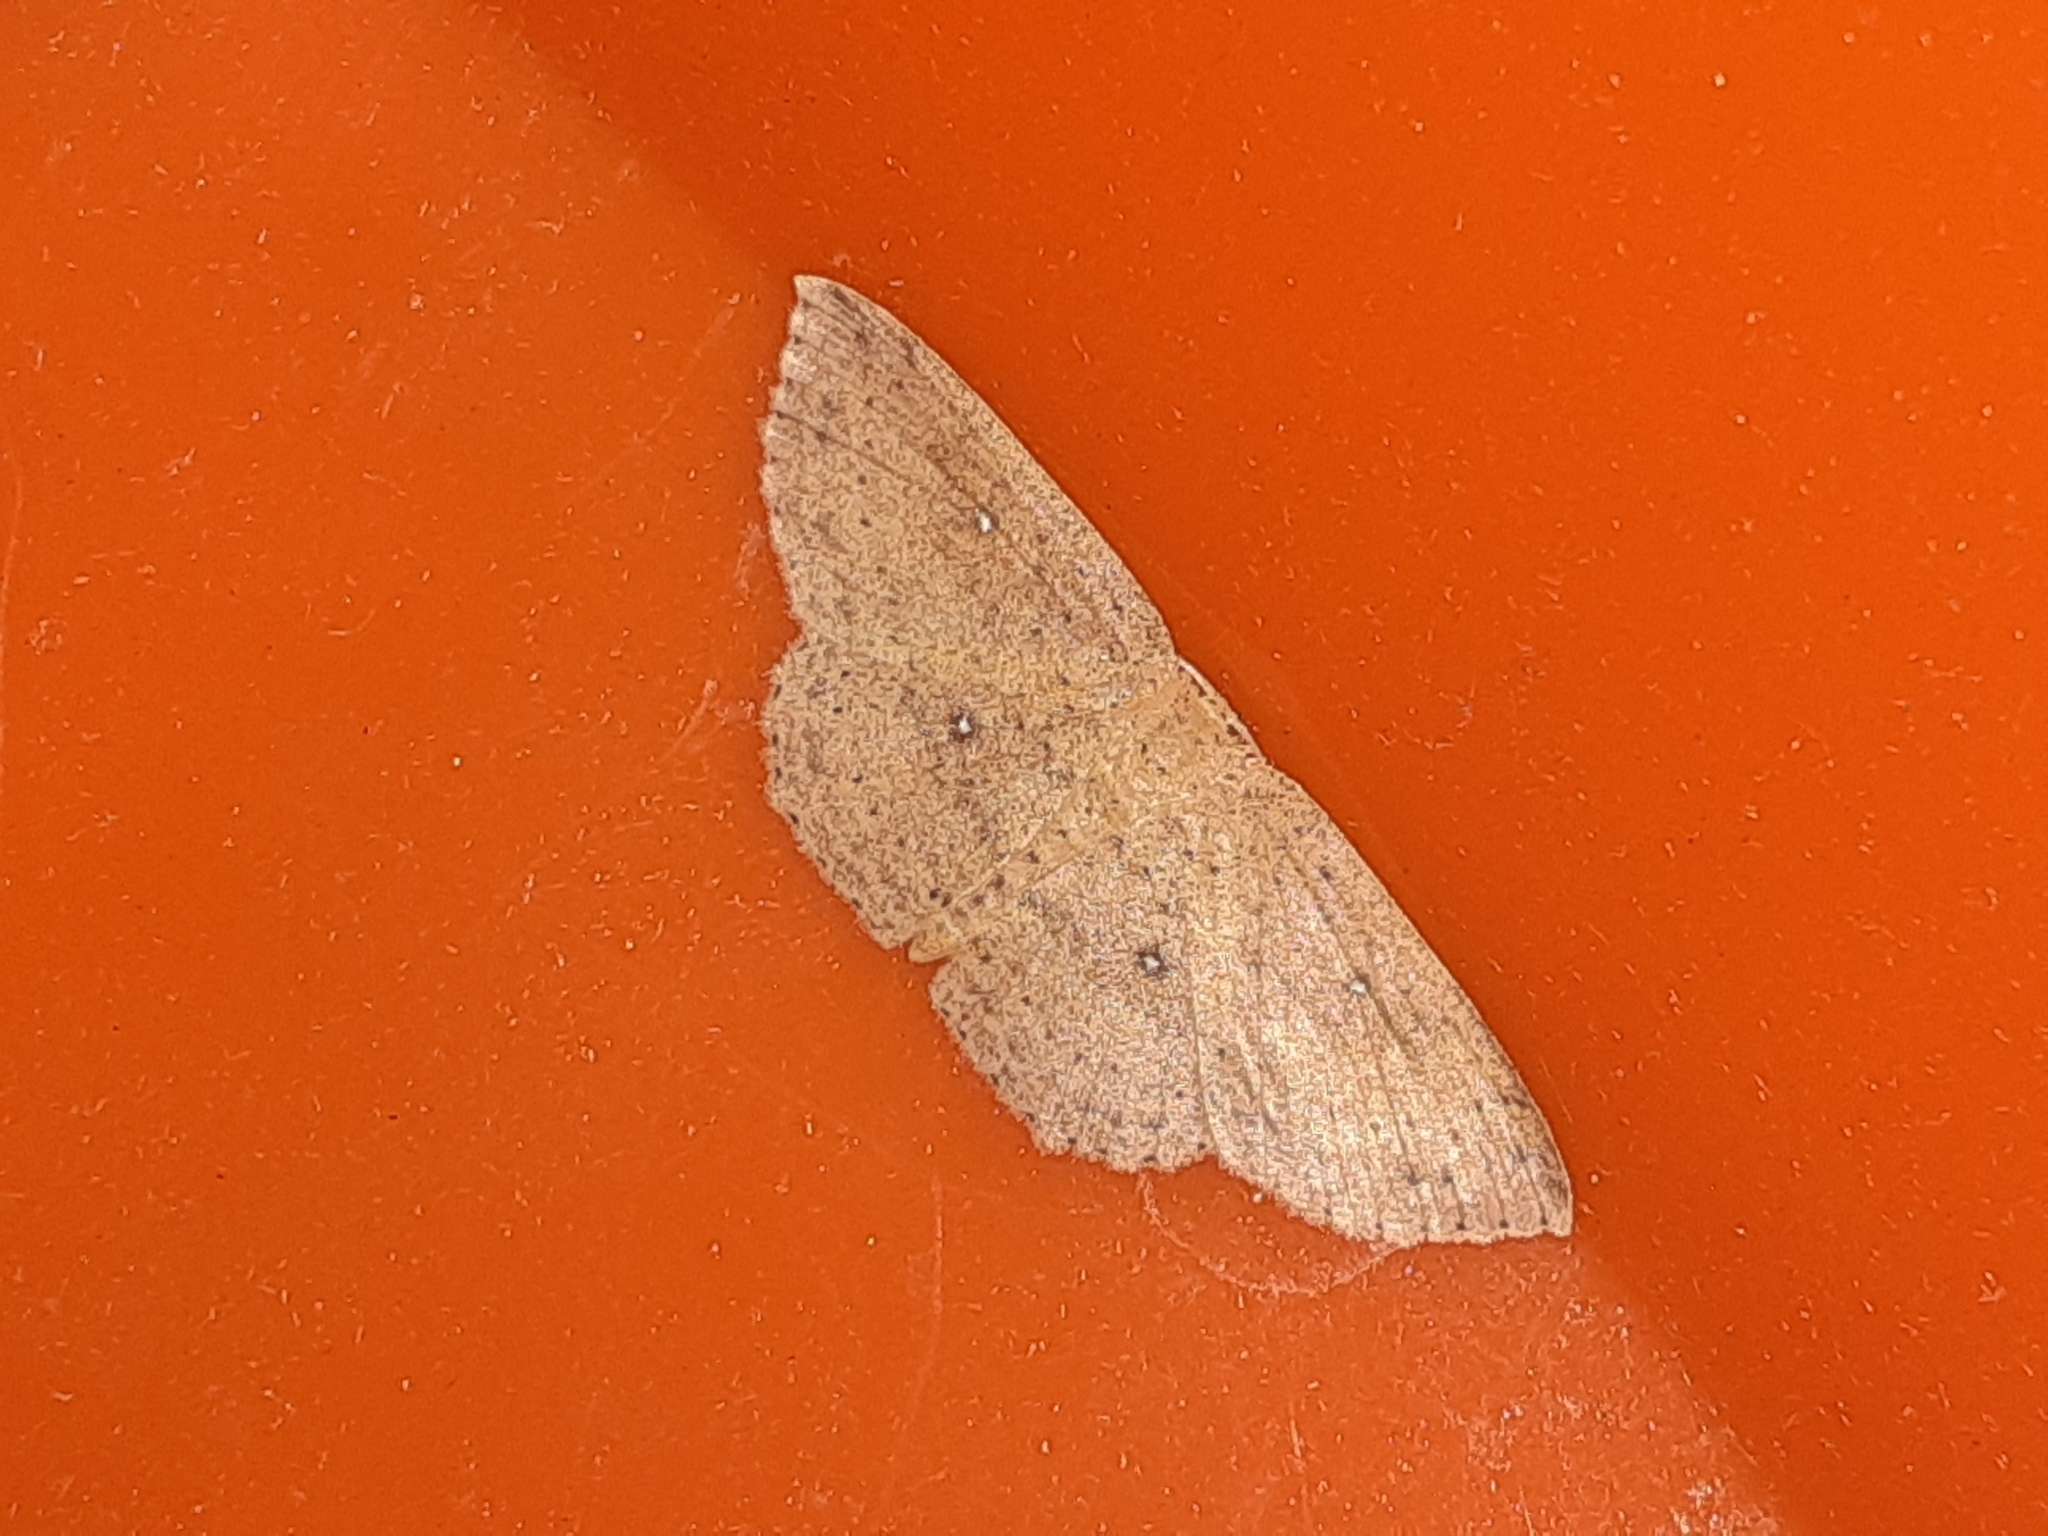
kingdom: Animalia
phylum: Arthropoda
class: Insecta
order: Lepidoptera
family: Geometridae
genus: Cyclophora
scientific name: Cyclophora myrtaria
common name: Waxmyrtle wave moth
